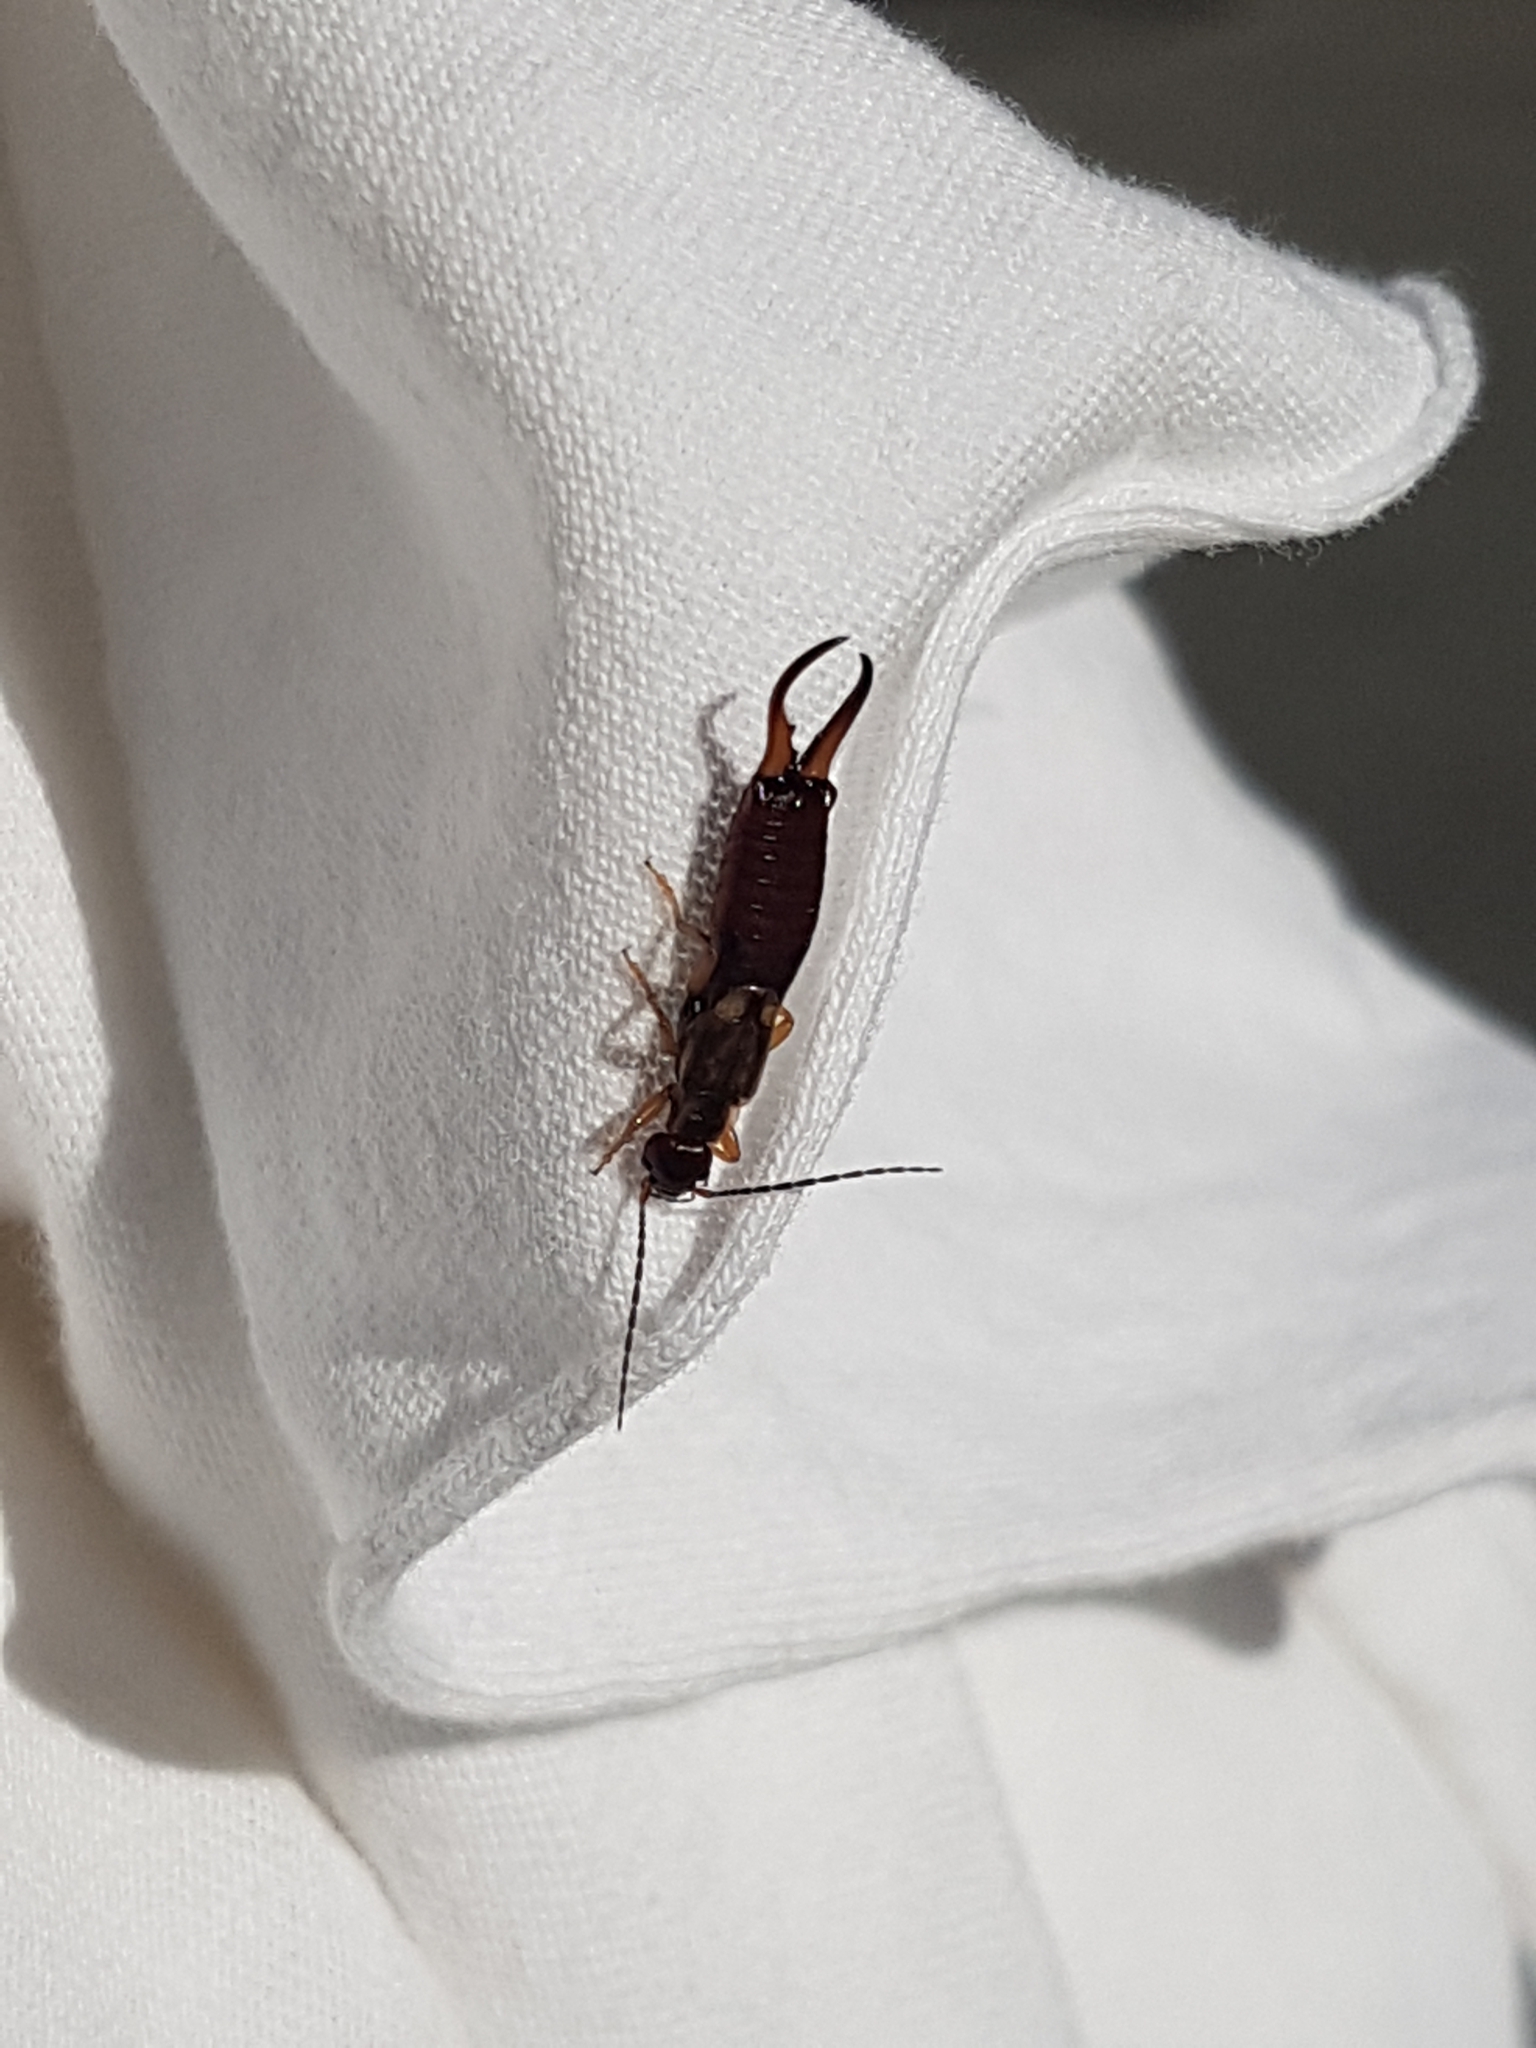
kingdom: Animalia
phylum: Arthropoda
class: Insecta
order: Dermaptera
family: Forficulidae
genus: Forficula
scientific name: Forficula
